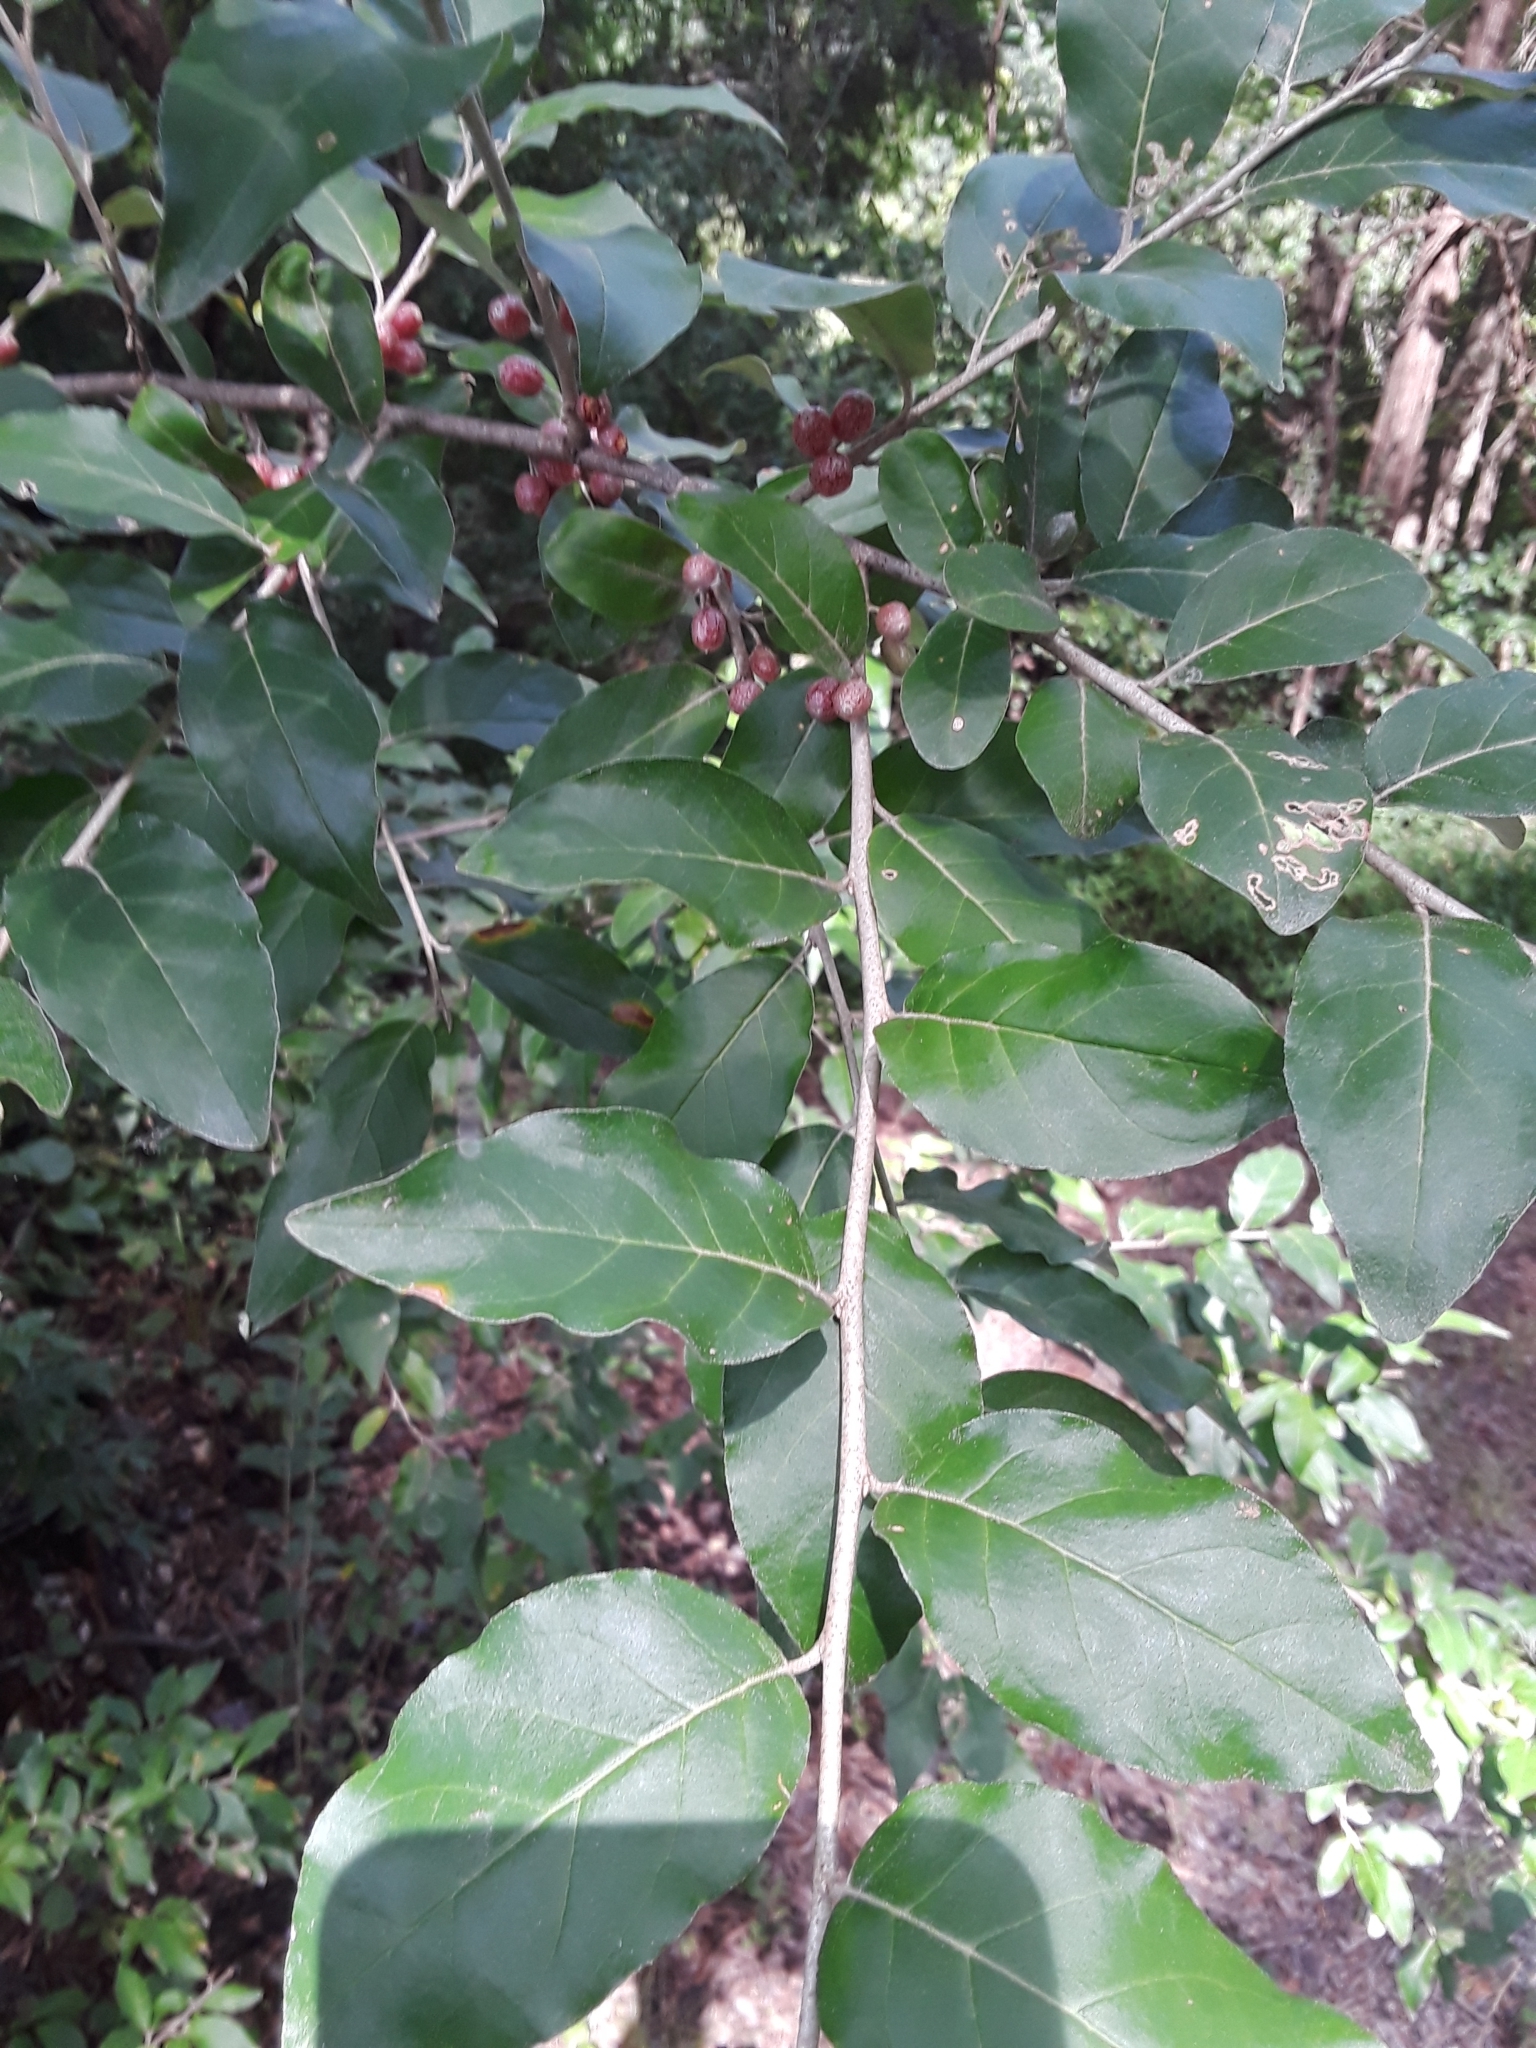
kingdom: Plantae
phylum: Tracheophyta
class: Magnoliopsida
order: Rosales
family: Elaeagnaceae
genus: Elaeagnus
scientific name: Elaeagnus umbellata
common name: Autumn olive
